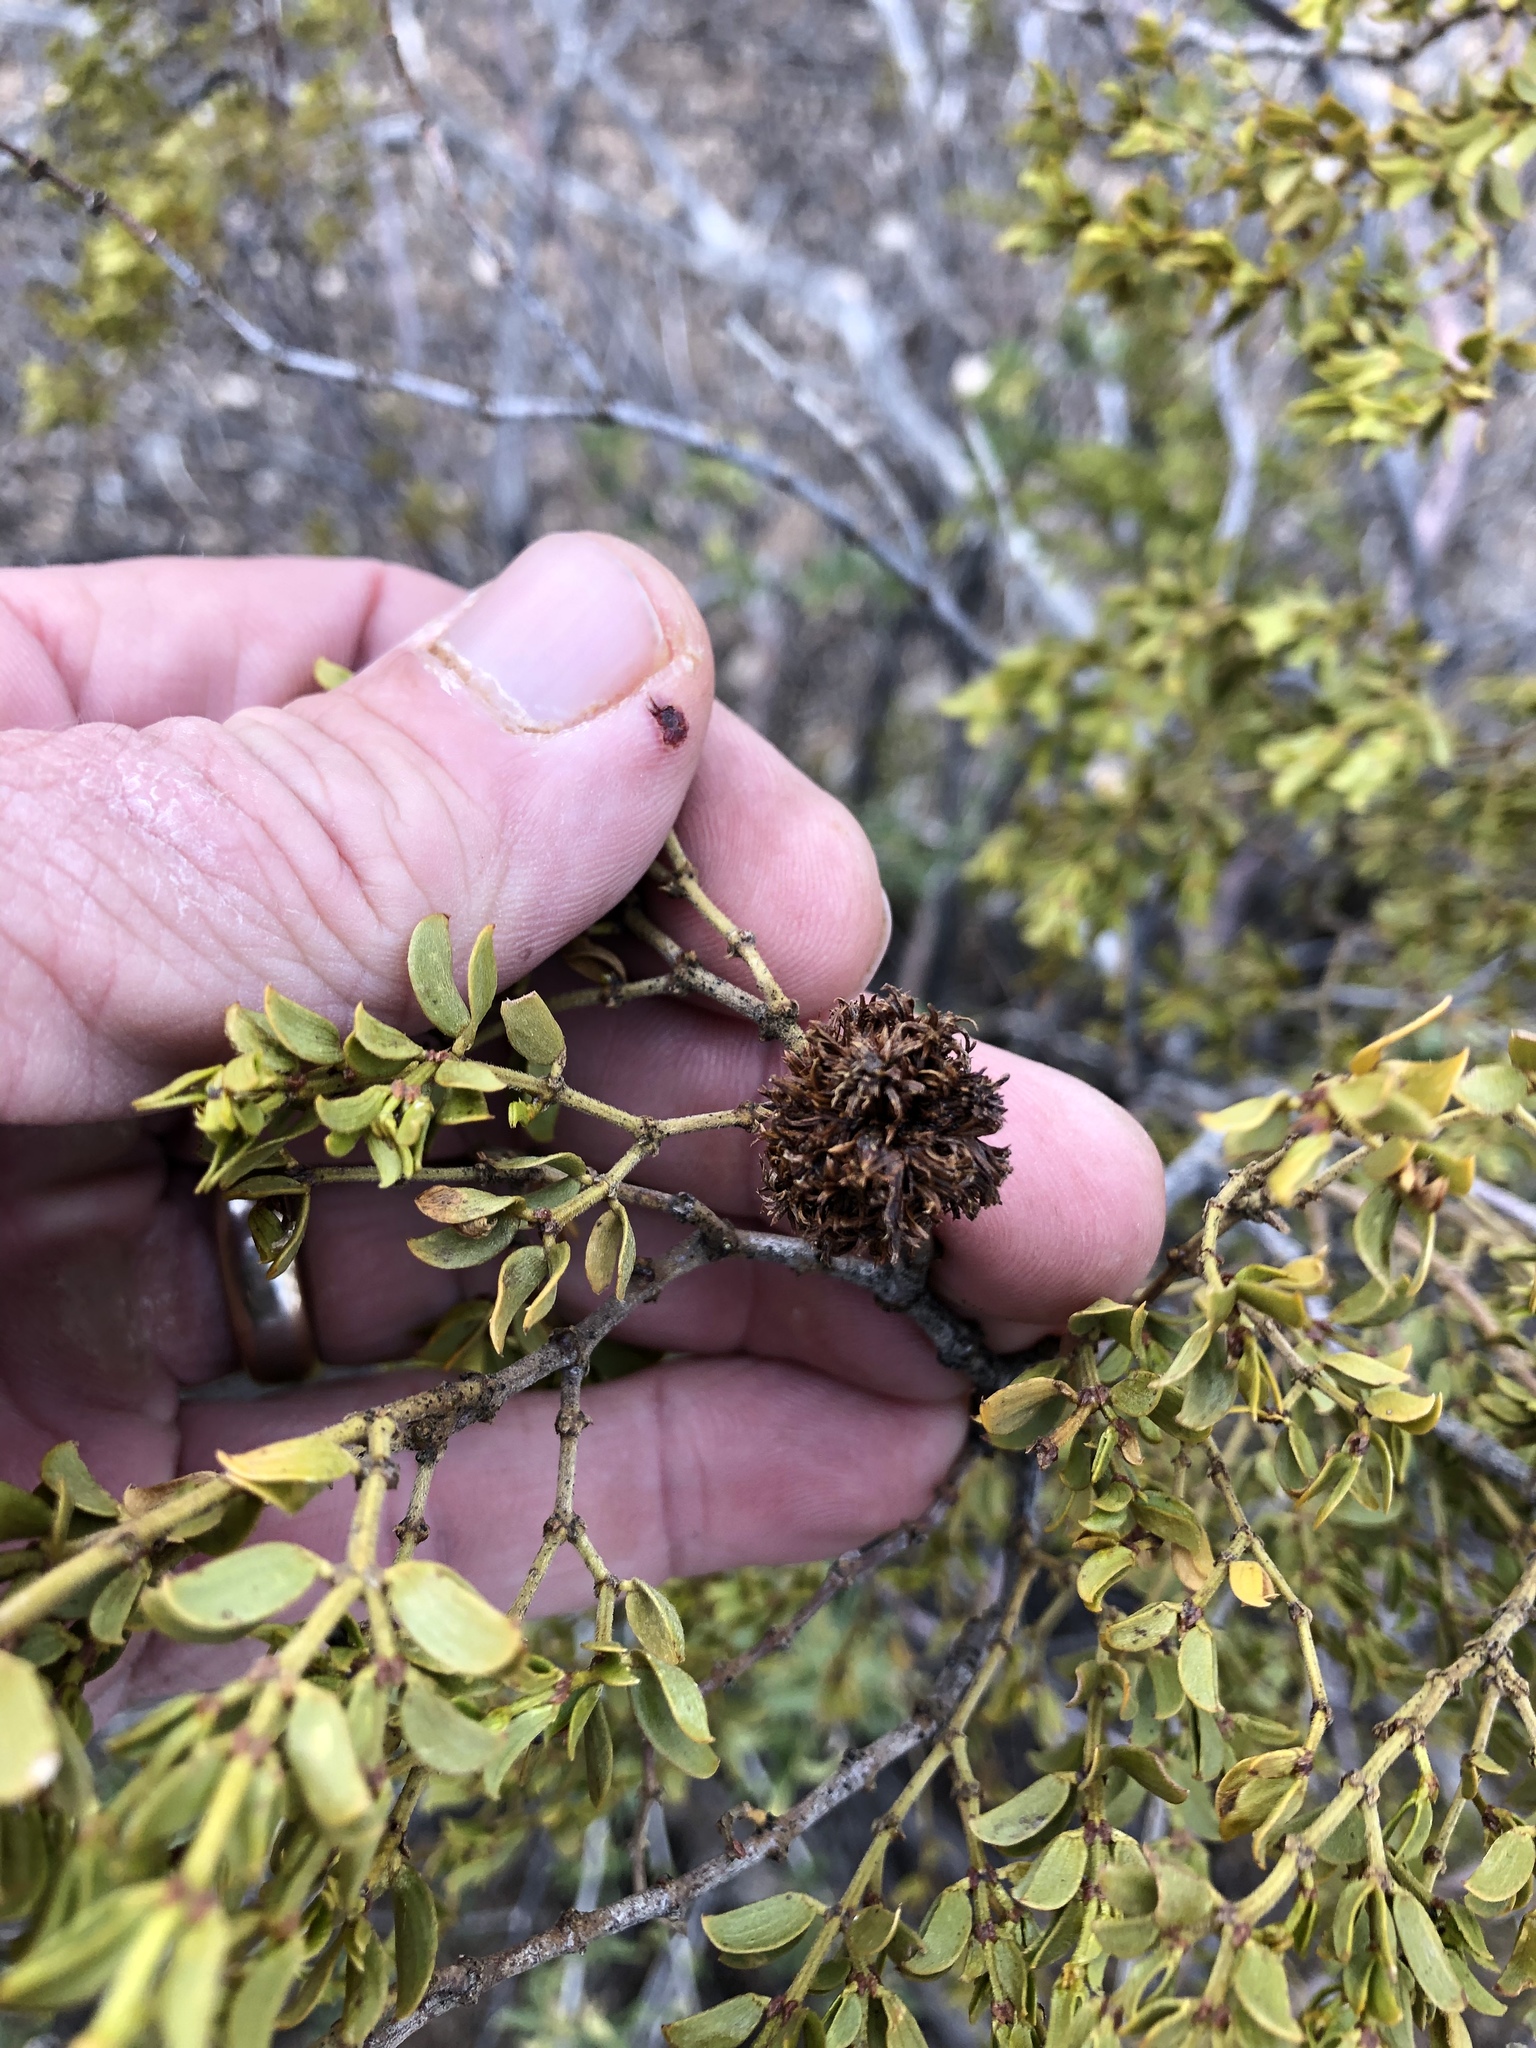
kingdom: Animalia
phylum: Arthropoda
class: Insecta
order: Diptera
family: Cecidomyiidae
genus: Asphondylia
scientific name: Asphondylia auripila
